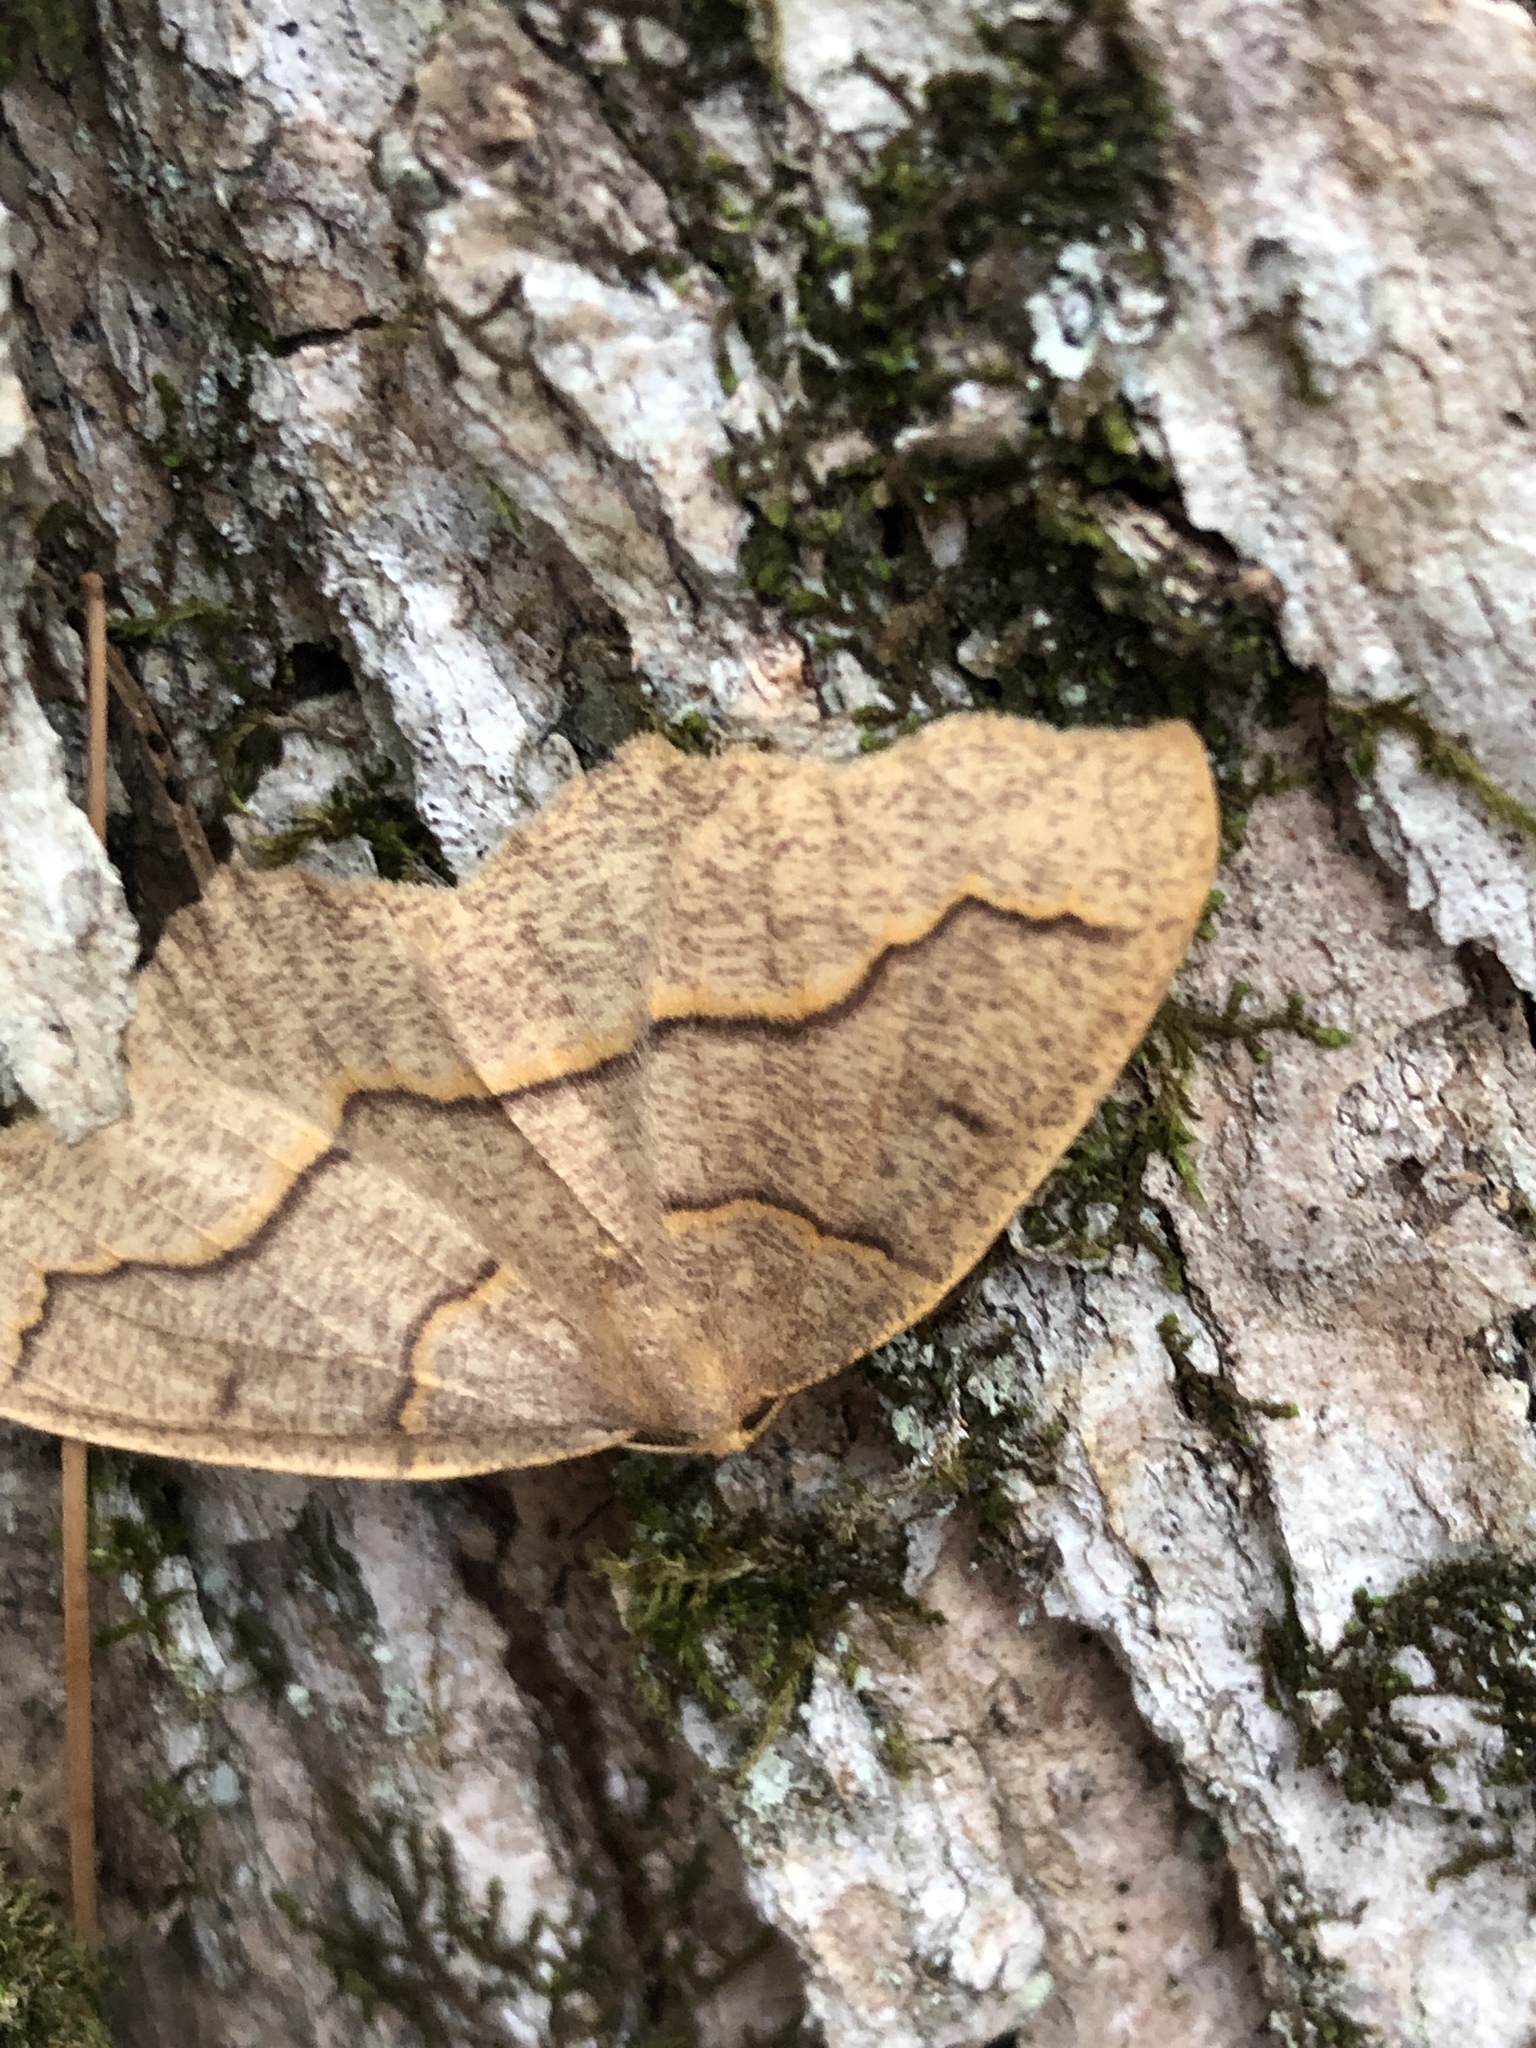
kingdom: Animalia
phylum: Arthropoda
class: Insecta
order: Lepidoptera
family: Geometridae
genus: Lambdina
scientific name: Lambdina fiscellaria
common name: Hemlock looper
